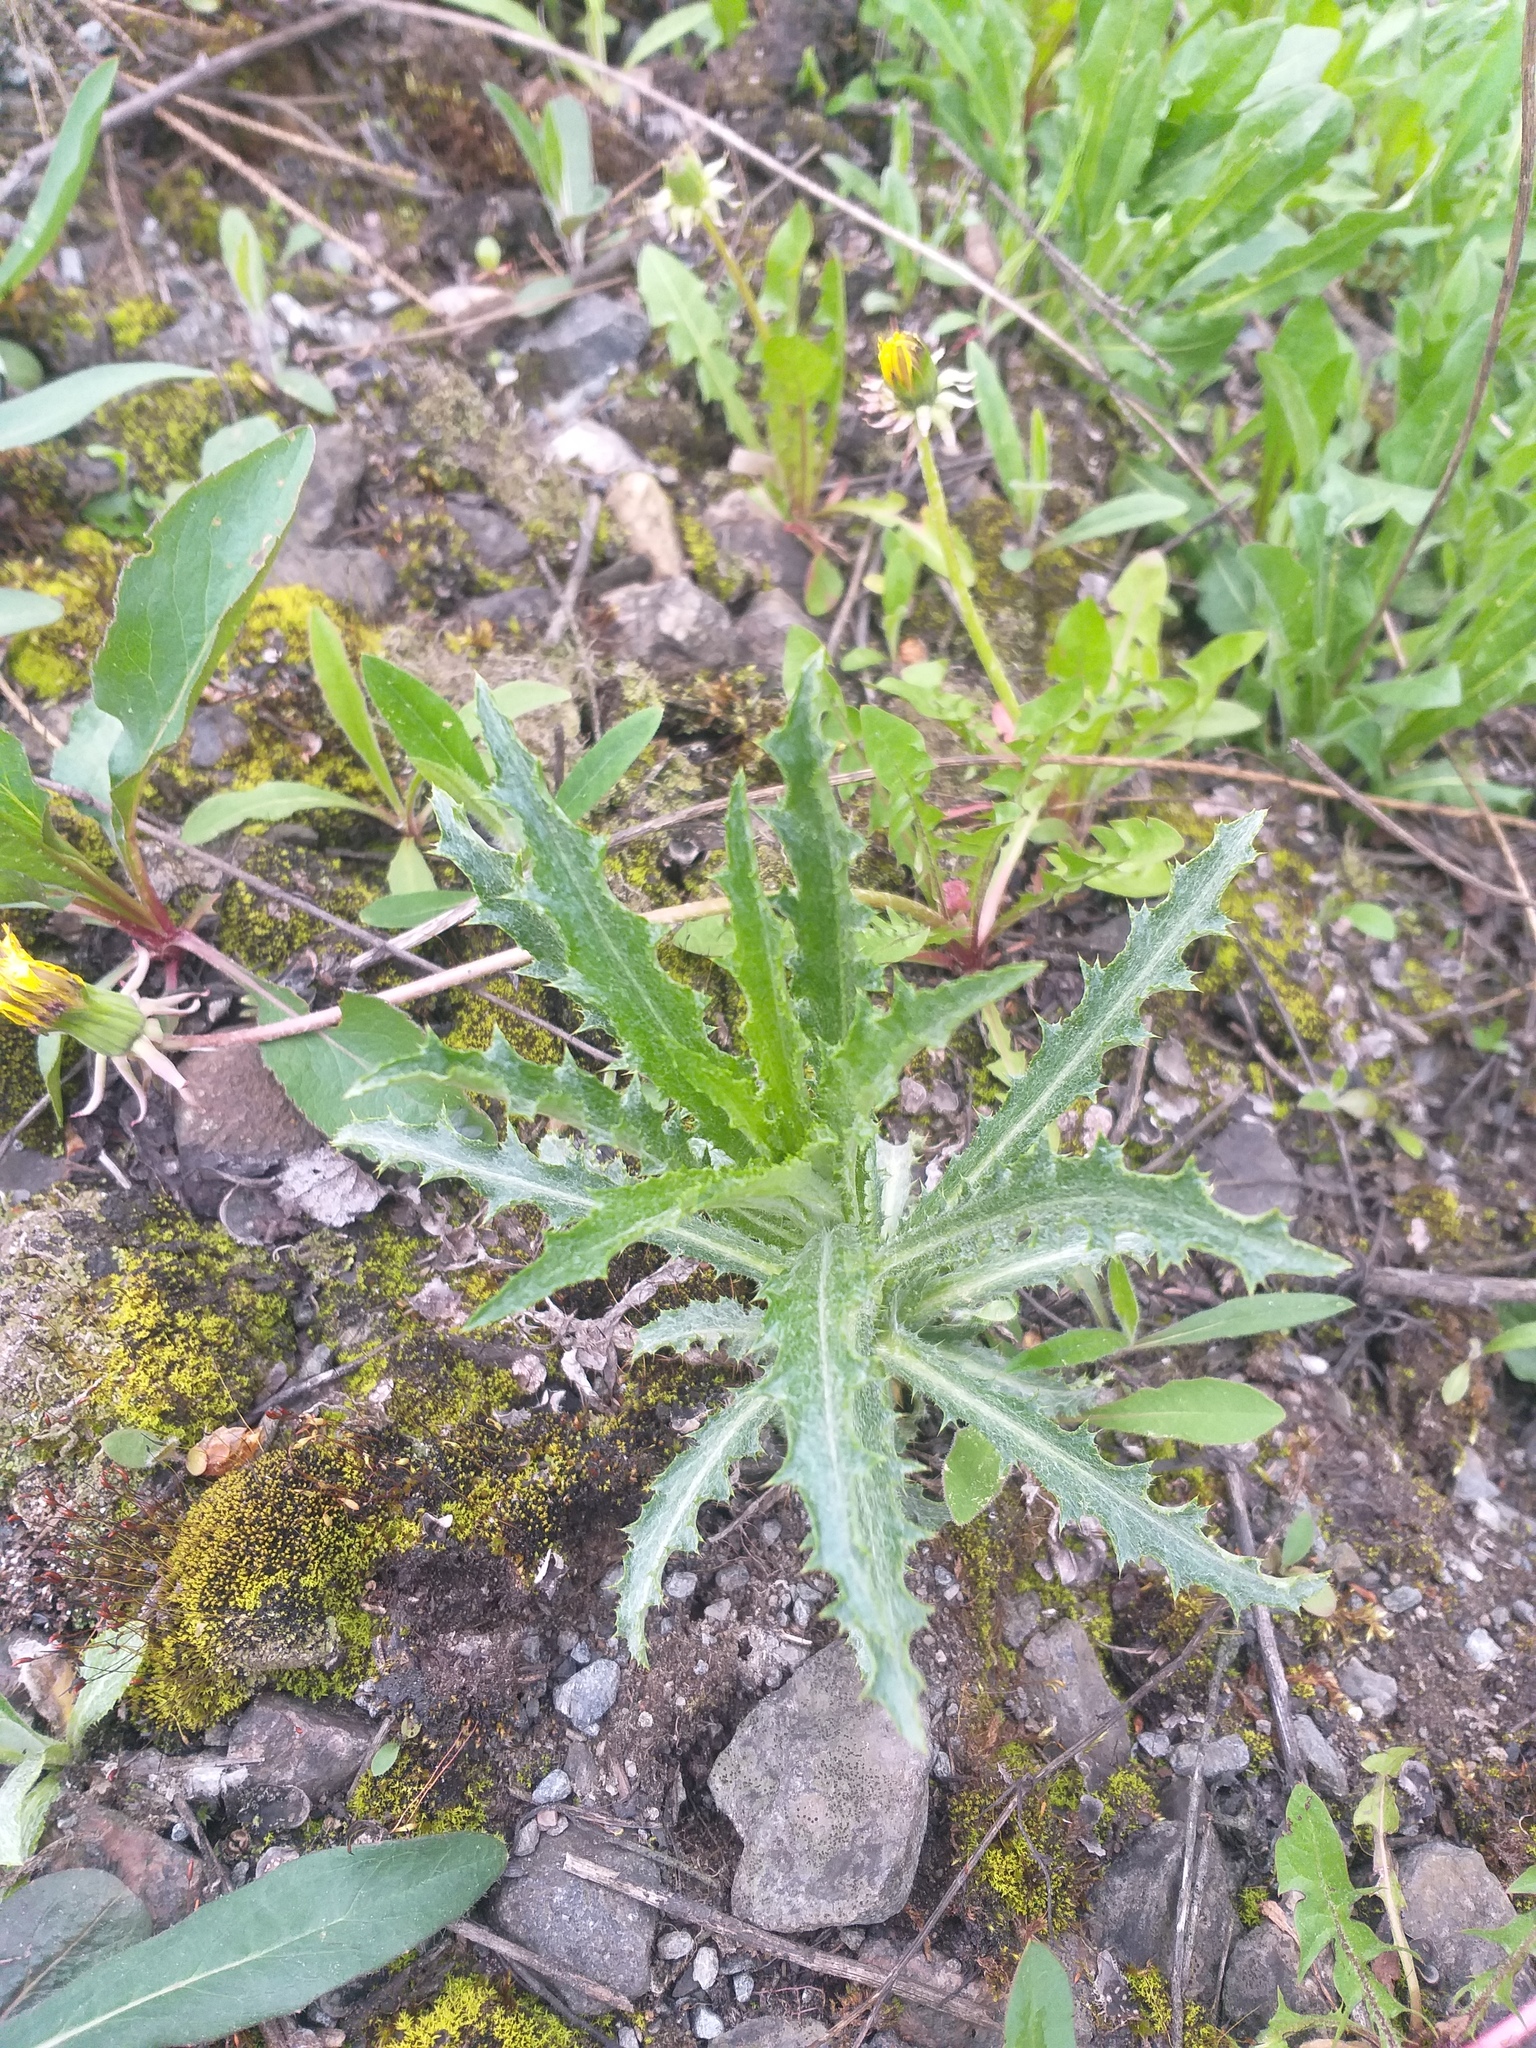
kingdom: Plantae
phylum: Tracheophyta
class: Magnoliopsida
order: Asterales
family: Asteraceae
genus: Carlina
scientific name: Carlina biebersteinii
